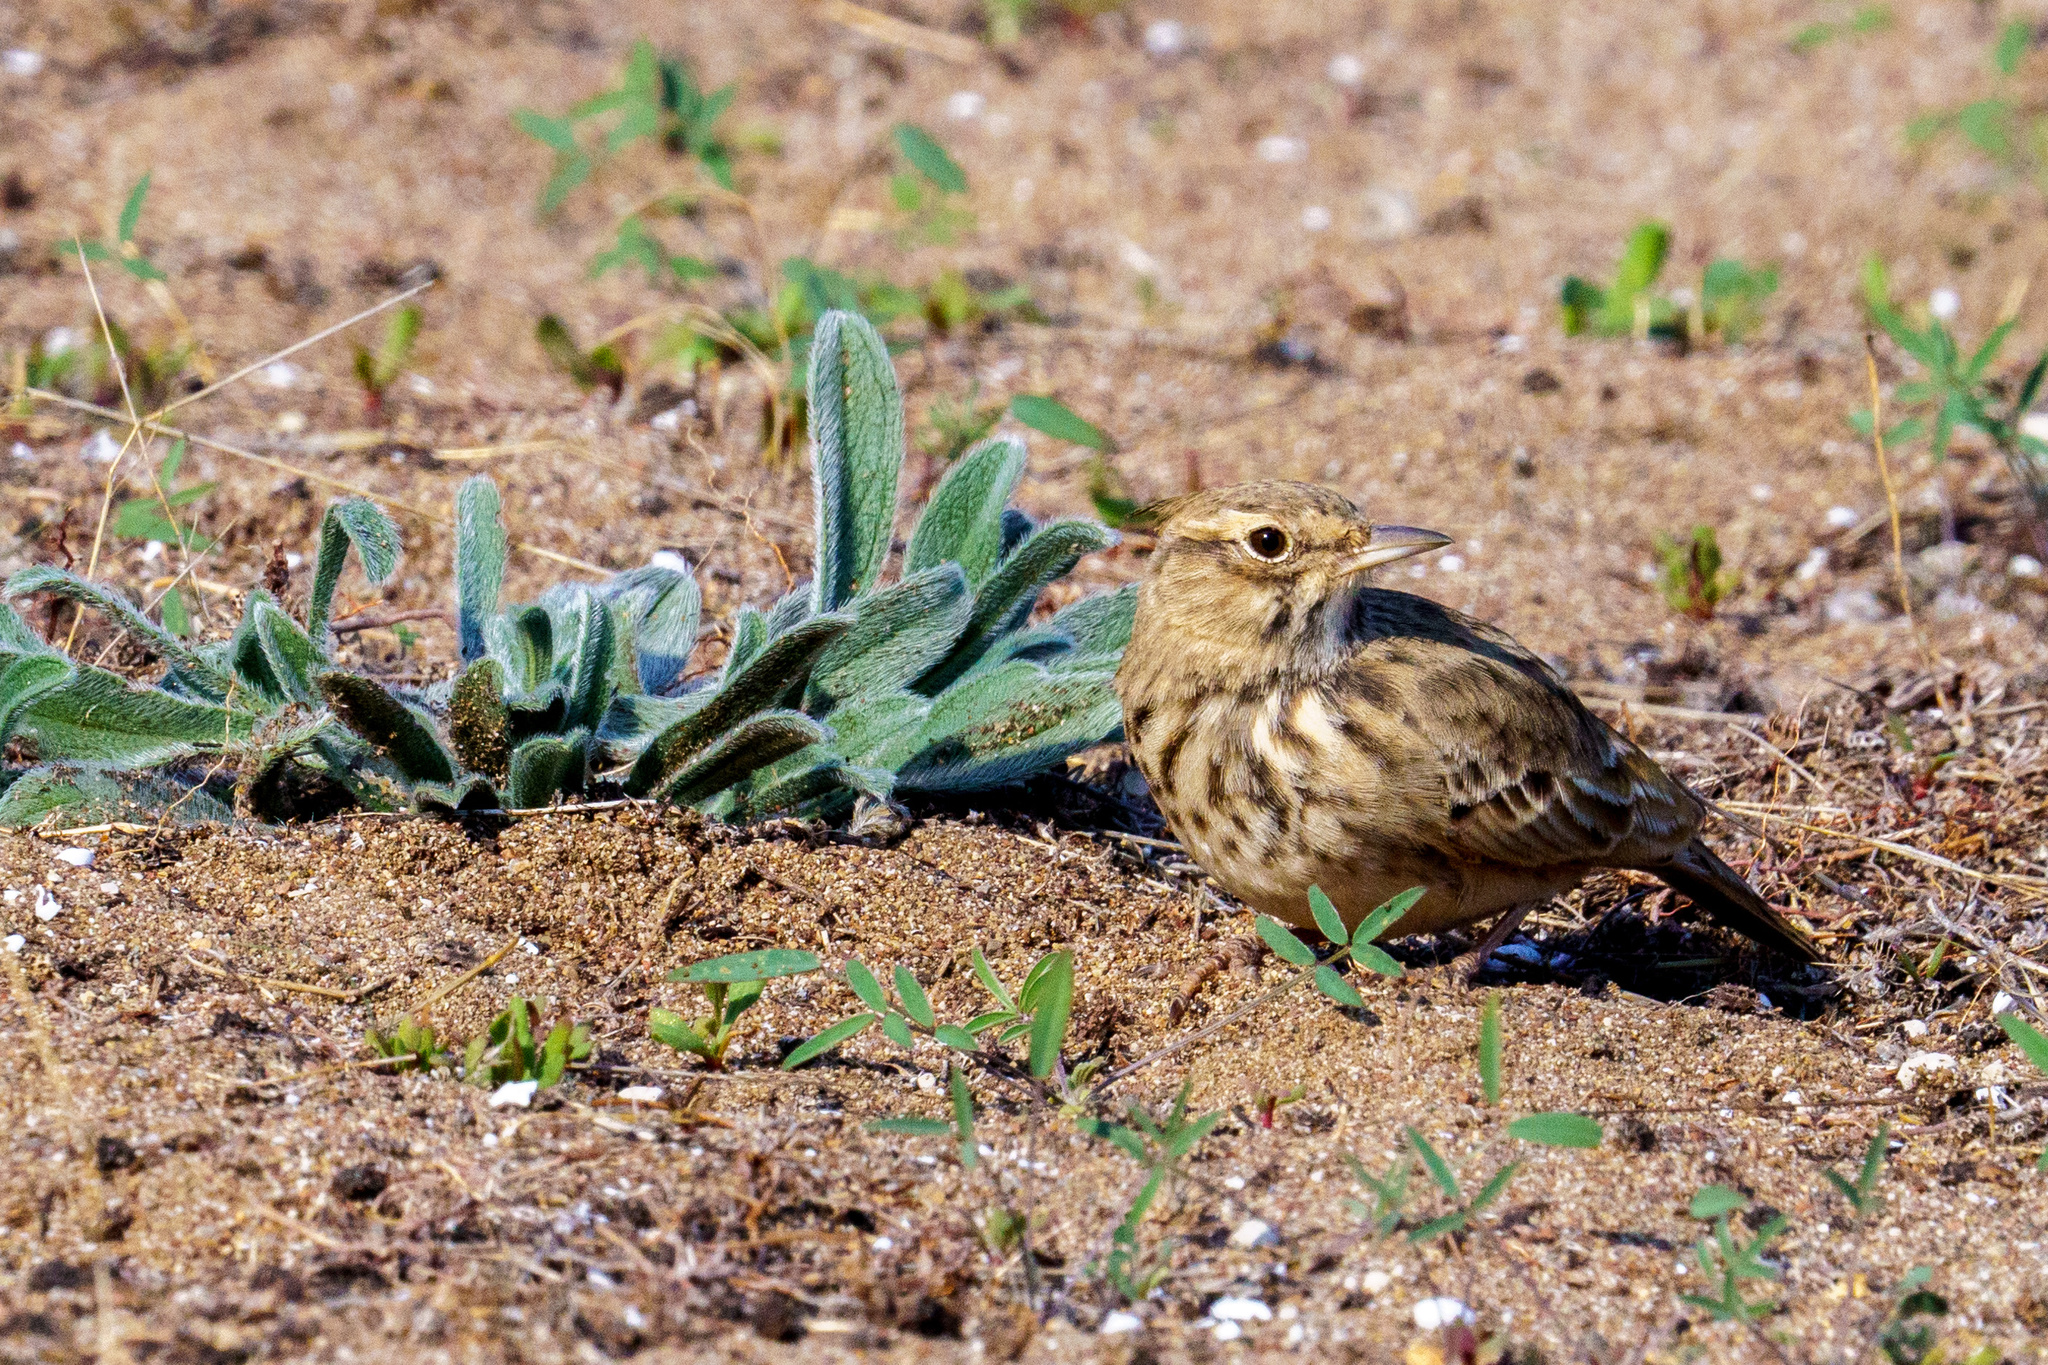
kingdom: Animalia
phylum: Chordata
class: Aves
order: Passeriformes
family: Alaudidae
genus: Galerida
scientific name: Galerida cristata
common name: Crested lark
